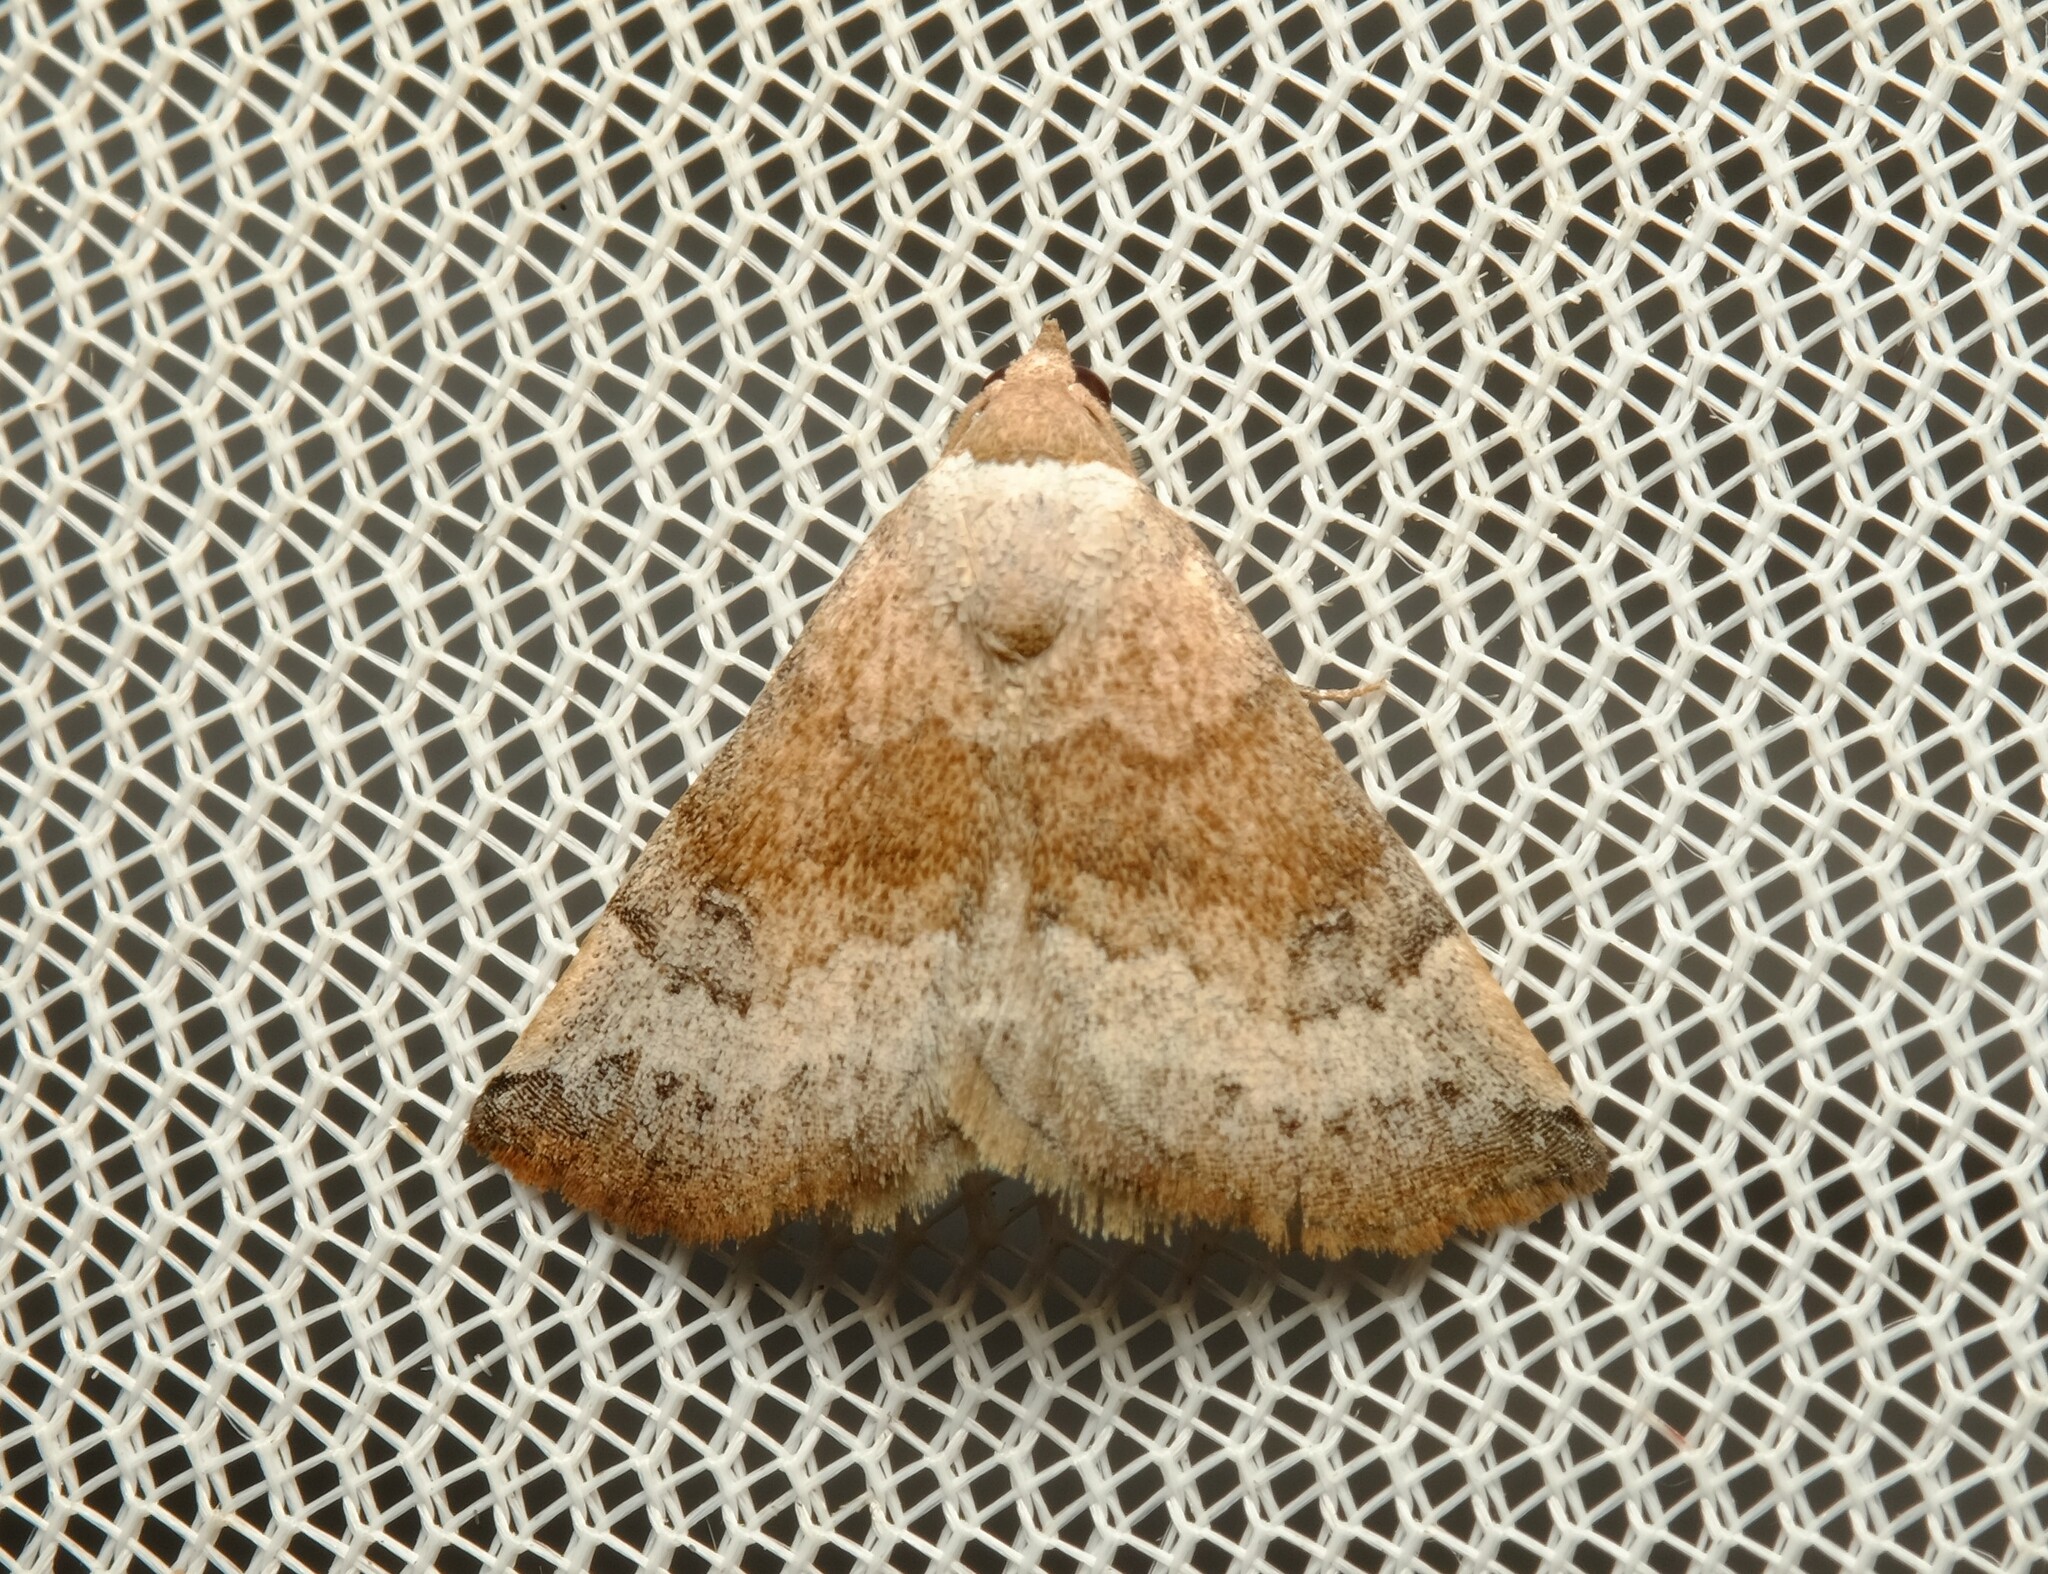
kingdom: Animalia
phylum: Arthropoda
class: Insecta
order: Lepidoptera
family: Noctuidae
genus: Mataeomera
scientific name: Mataeomera mesotaenia
